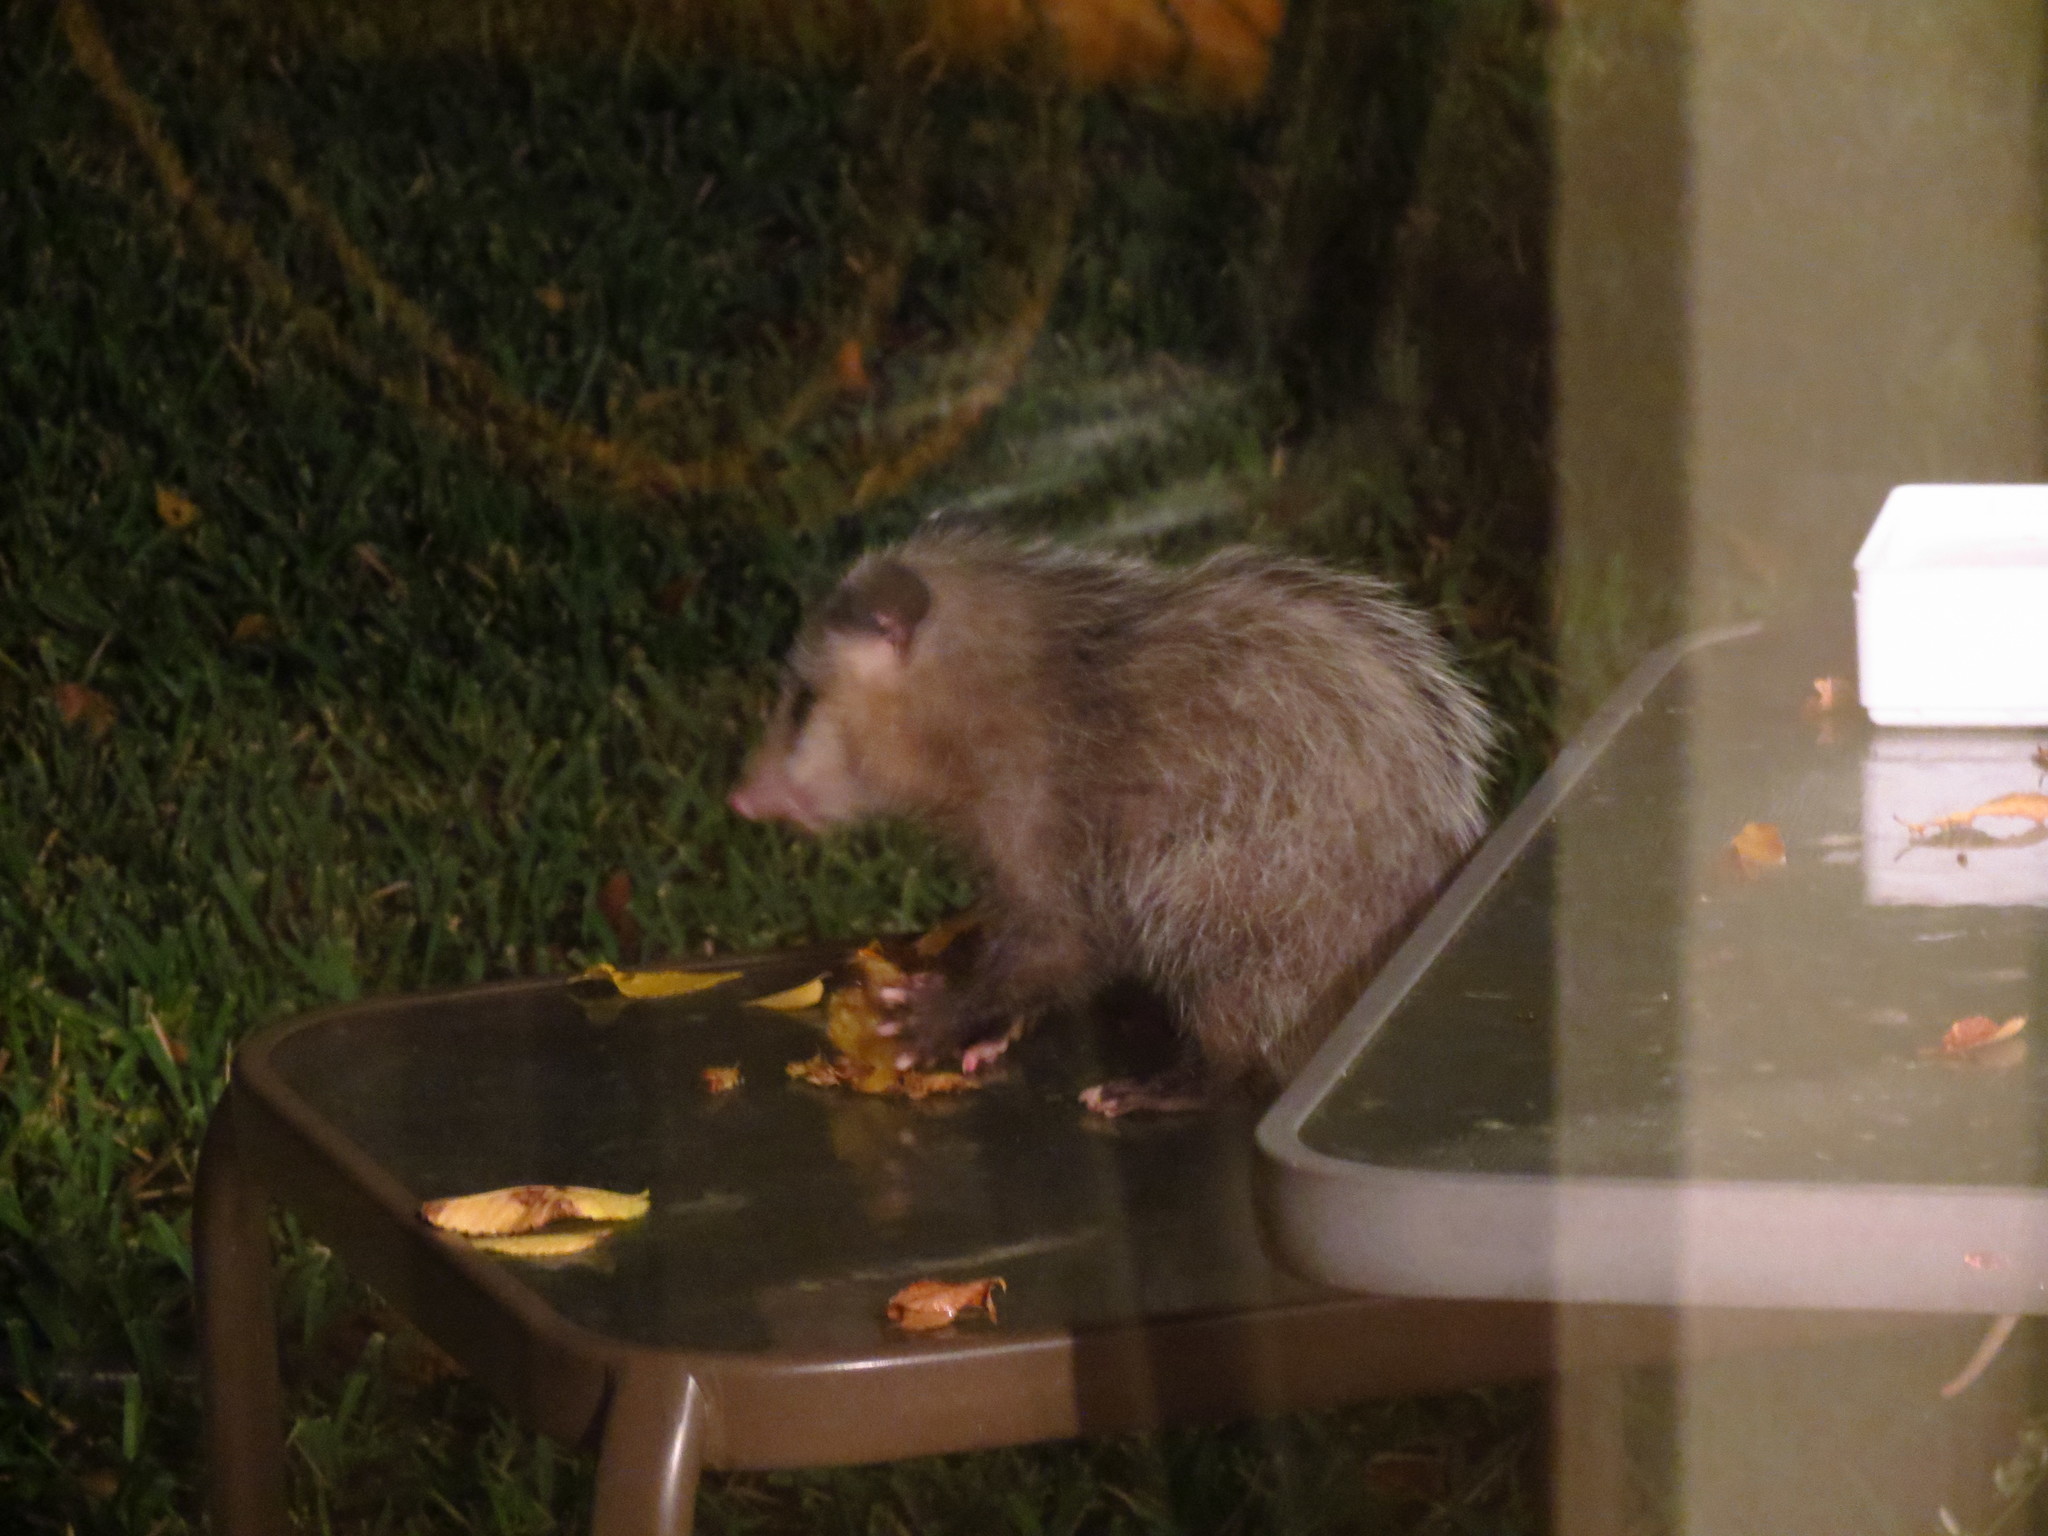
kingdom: Animalia
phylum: Chordata
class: Mammalia
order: Didelphimorphia
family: Didelphidae
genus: Didelphis
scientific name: Didelphis virginiana
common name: Virginia opossum
